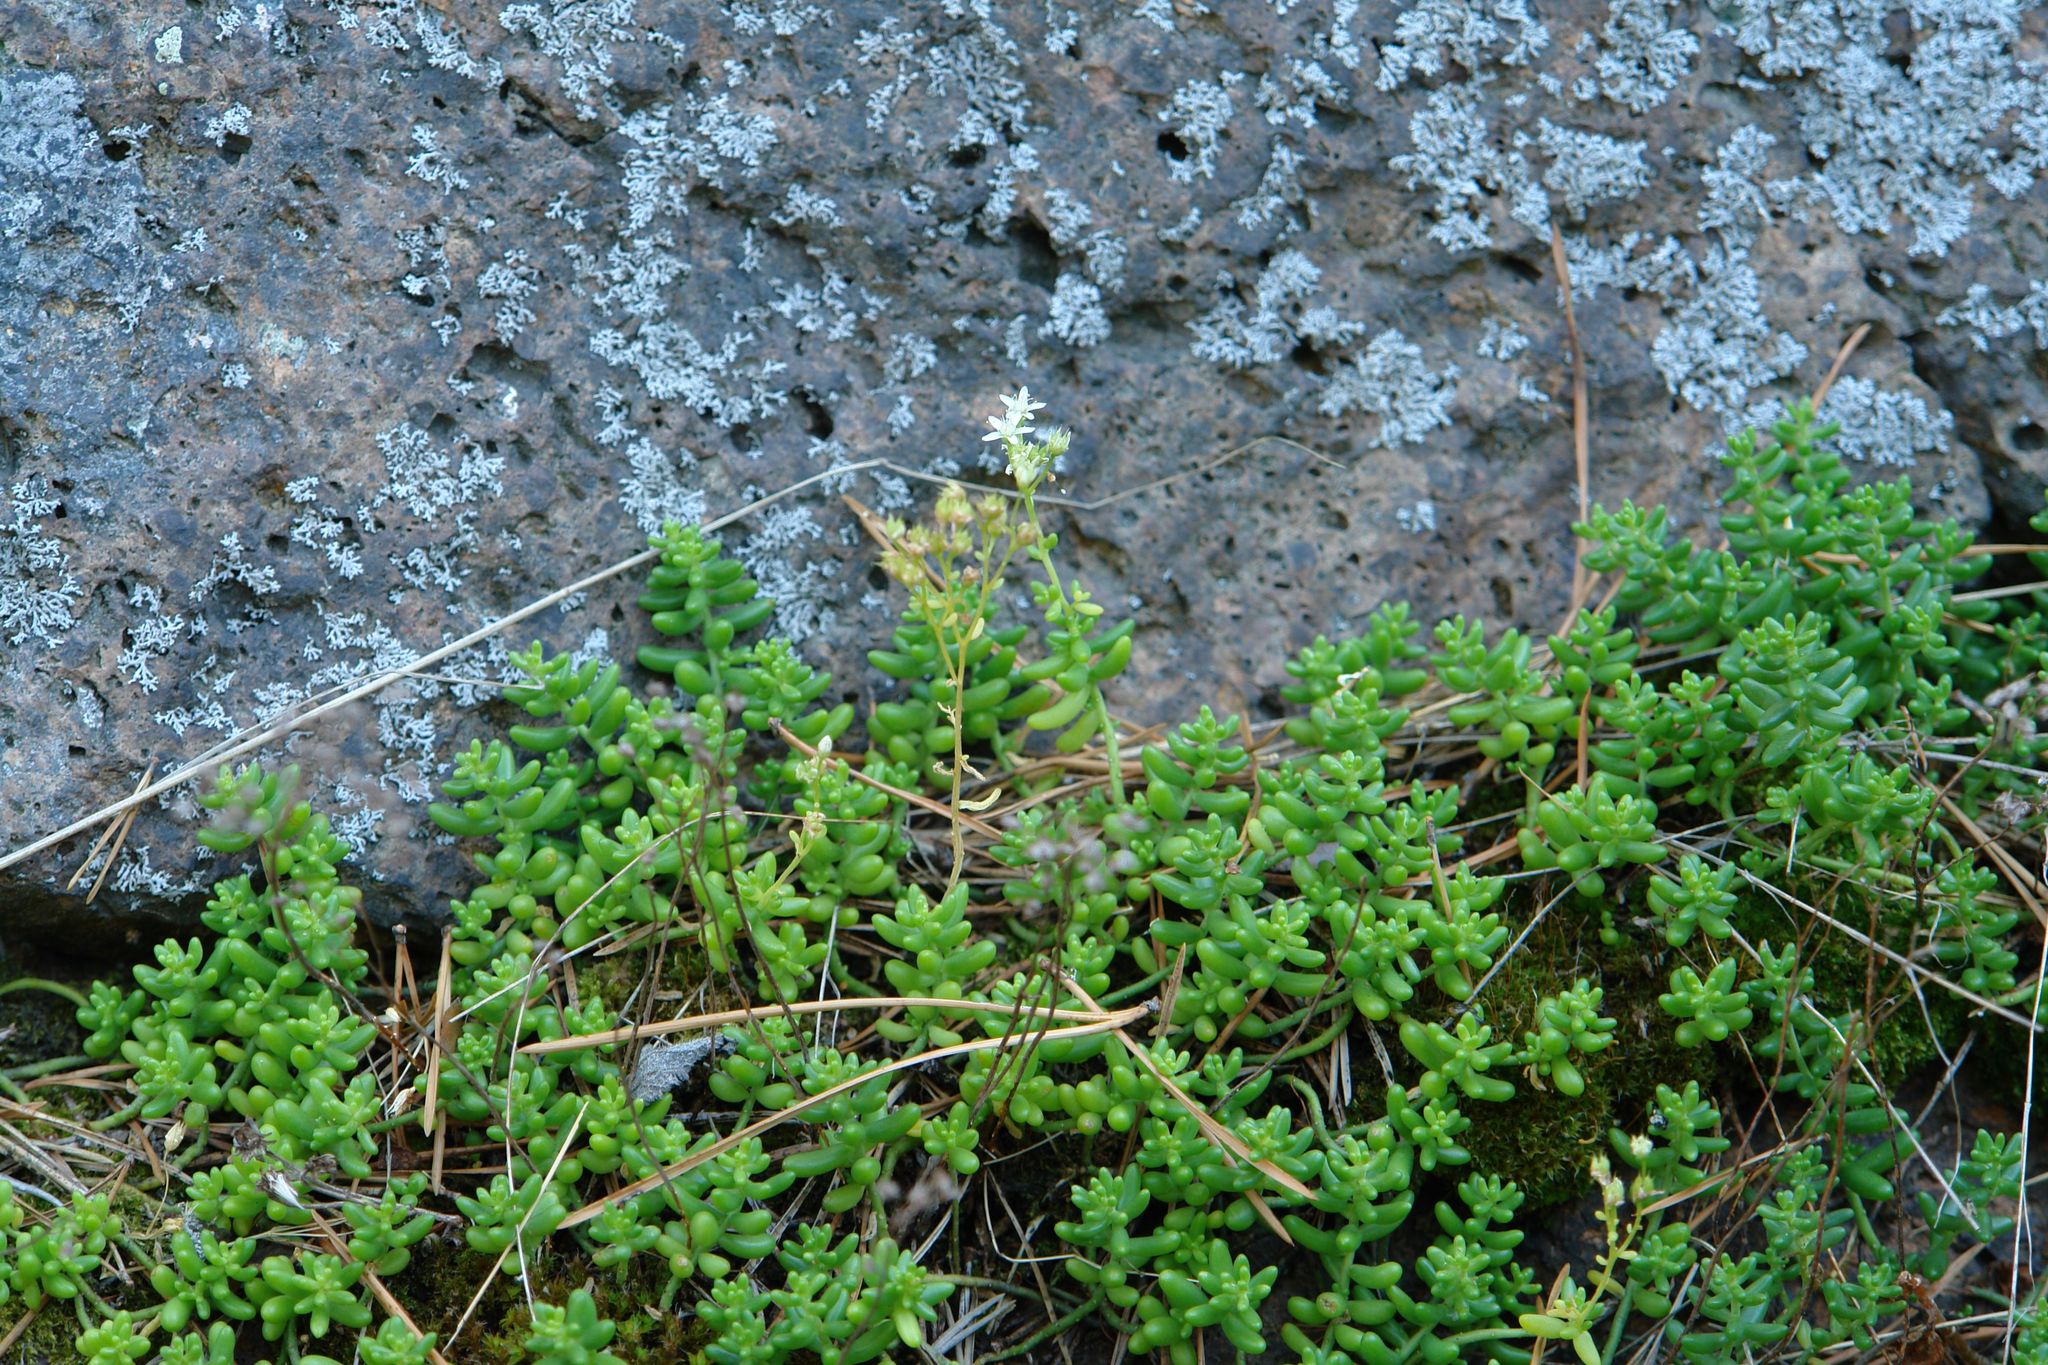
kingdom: Plantae
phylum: Tracheophyta
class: Magnoliopsida
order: Saxifragales
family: Crassulaceae
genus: Sedum
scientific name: Sedum album
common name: White stonecrop
